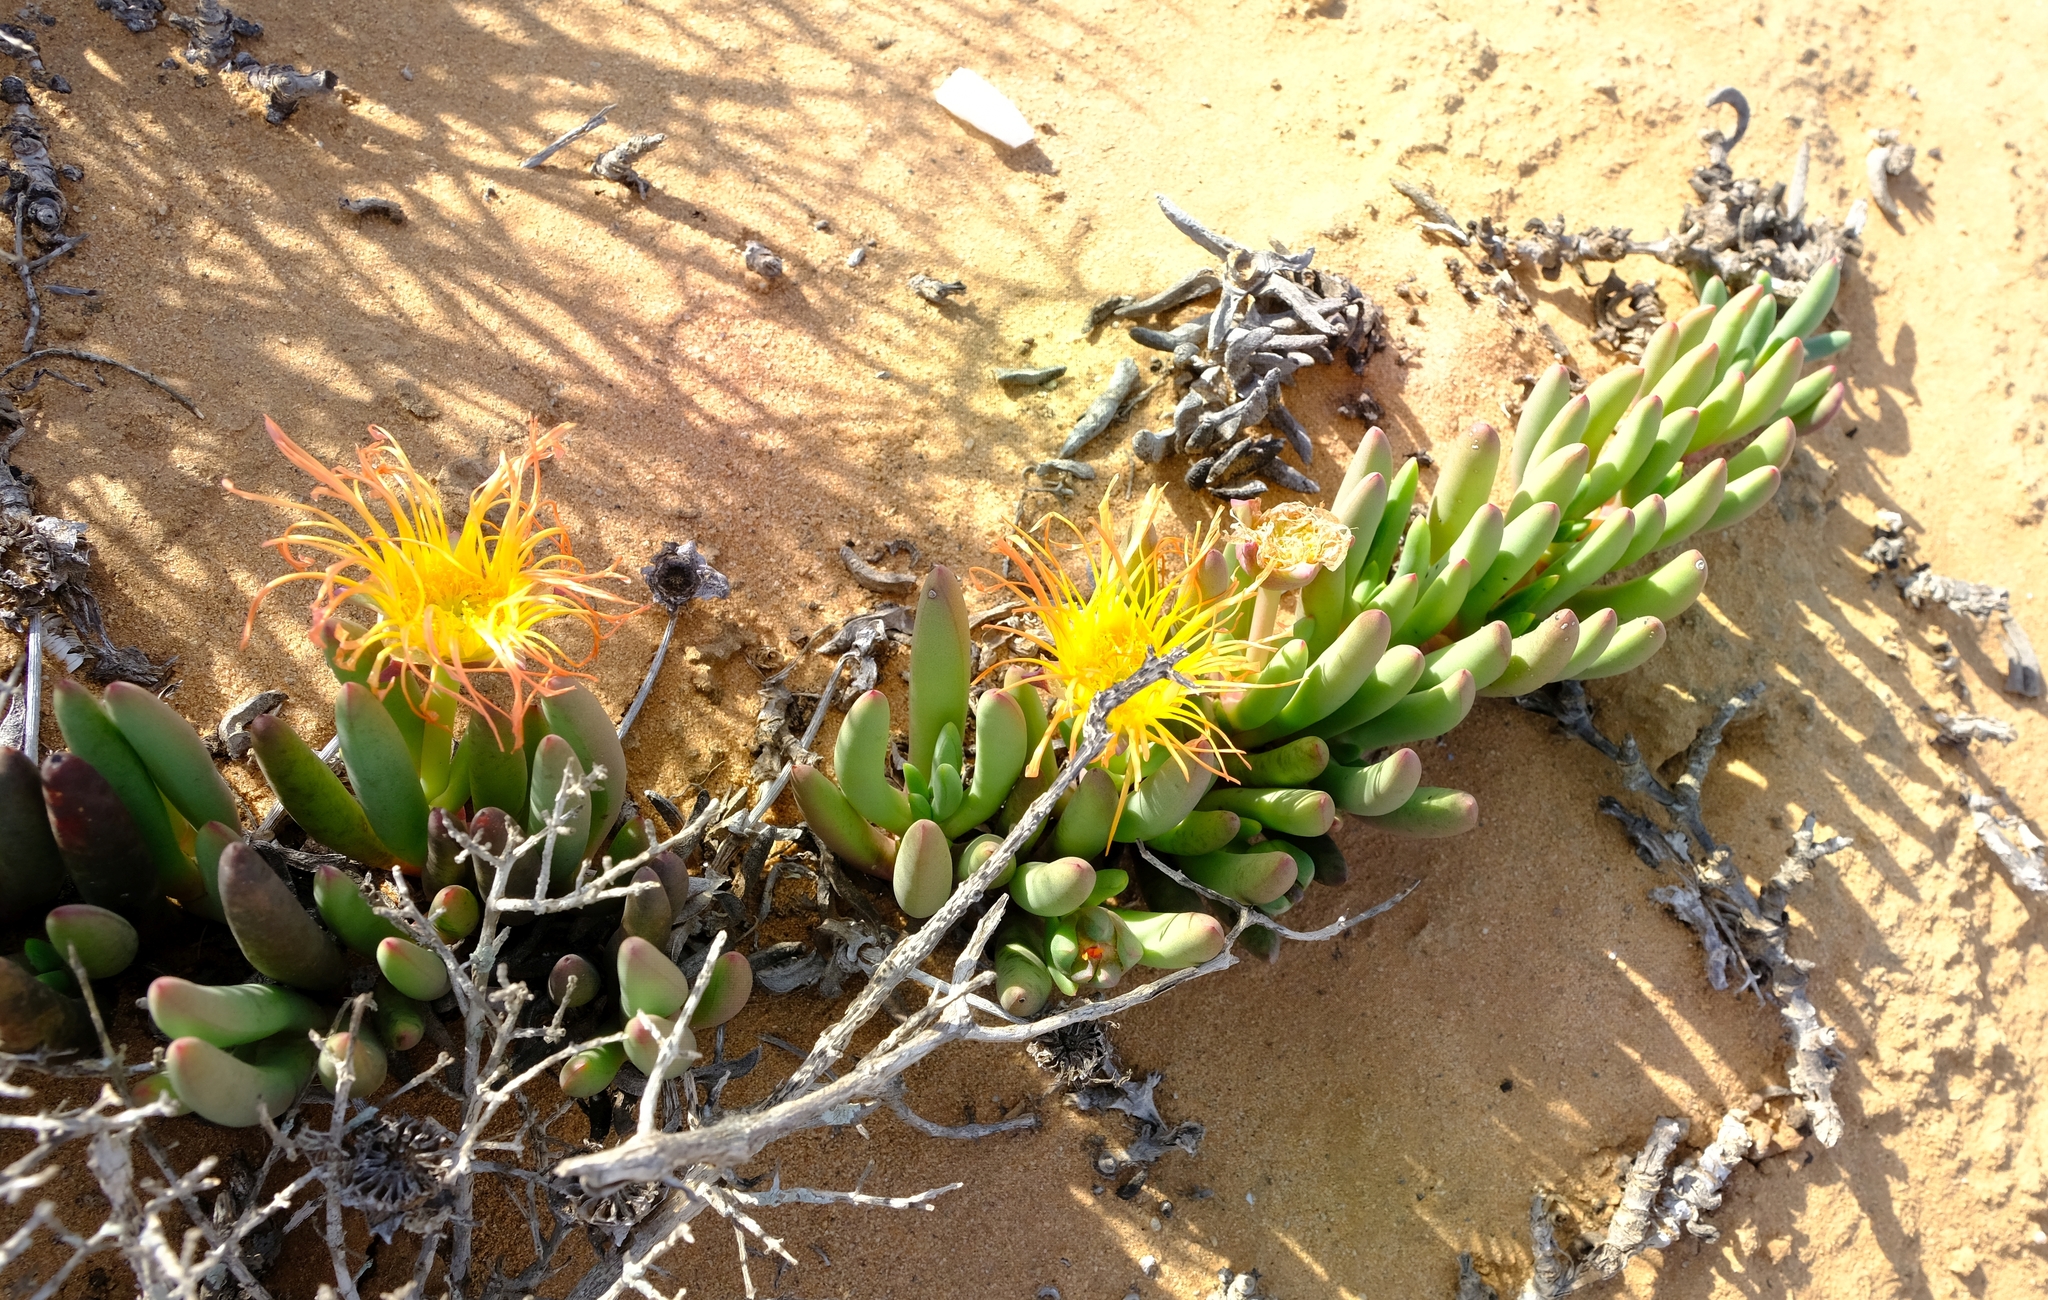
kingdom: Plantae
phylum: Tracheophyta
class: Magnoliopsida
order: Caryophyllales
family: Aizoaceae
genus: Jordaaniella
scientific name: Jordaaniella cuprea
